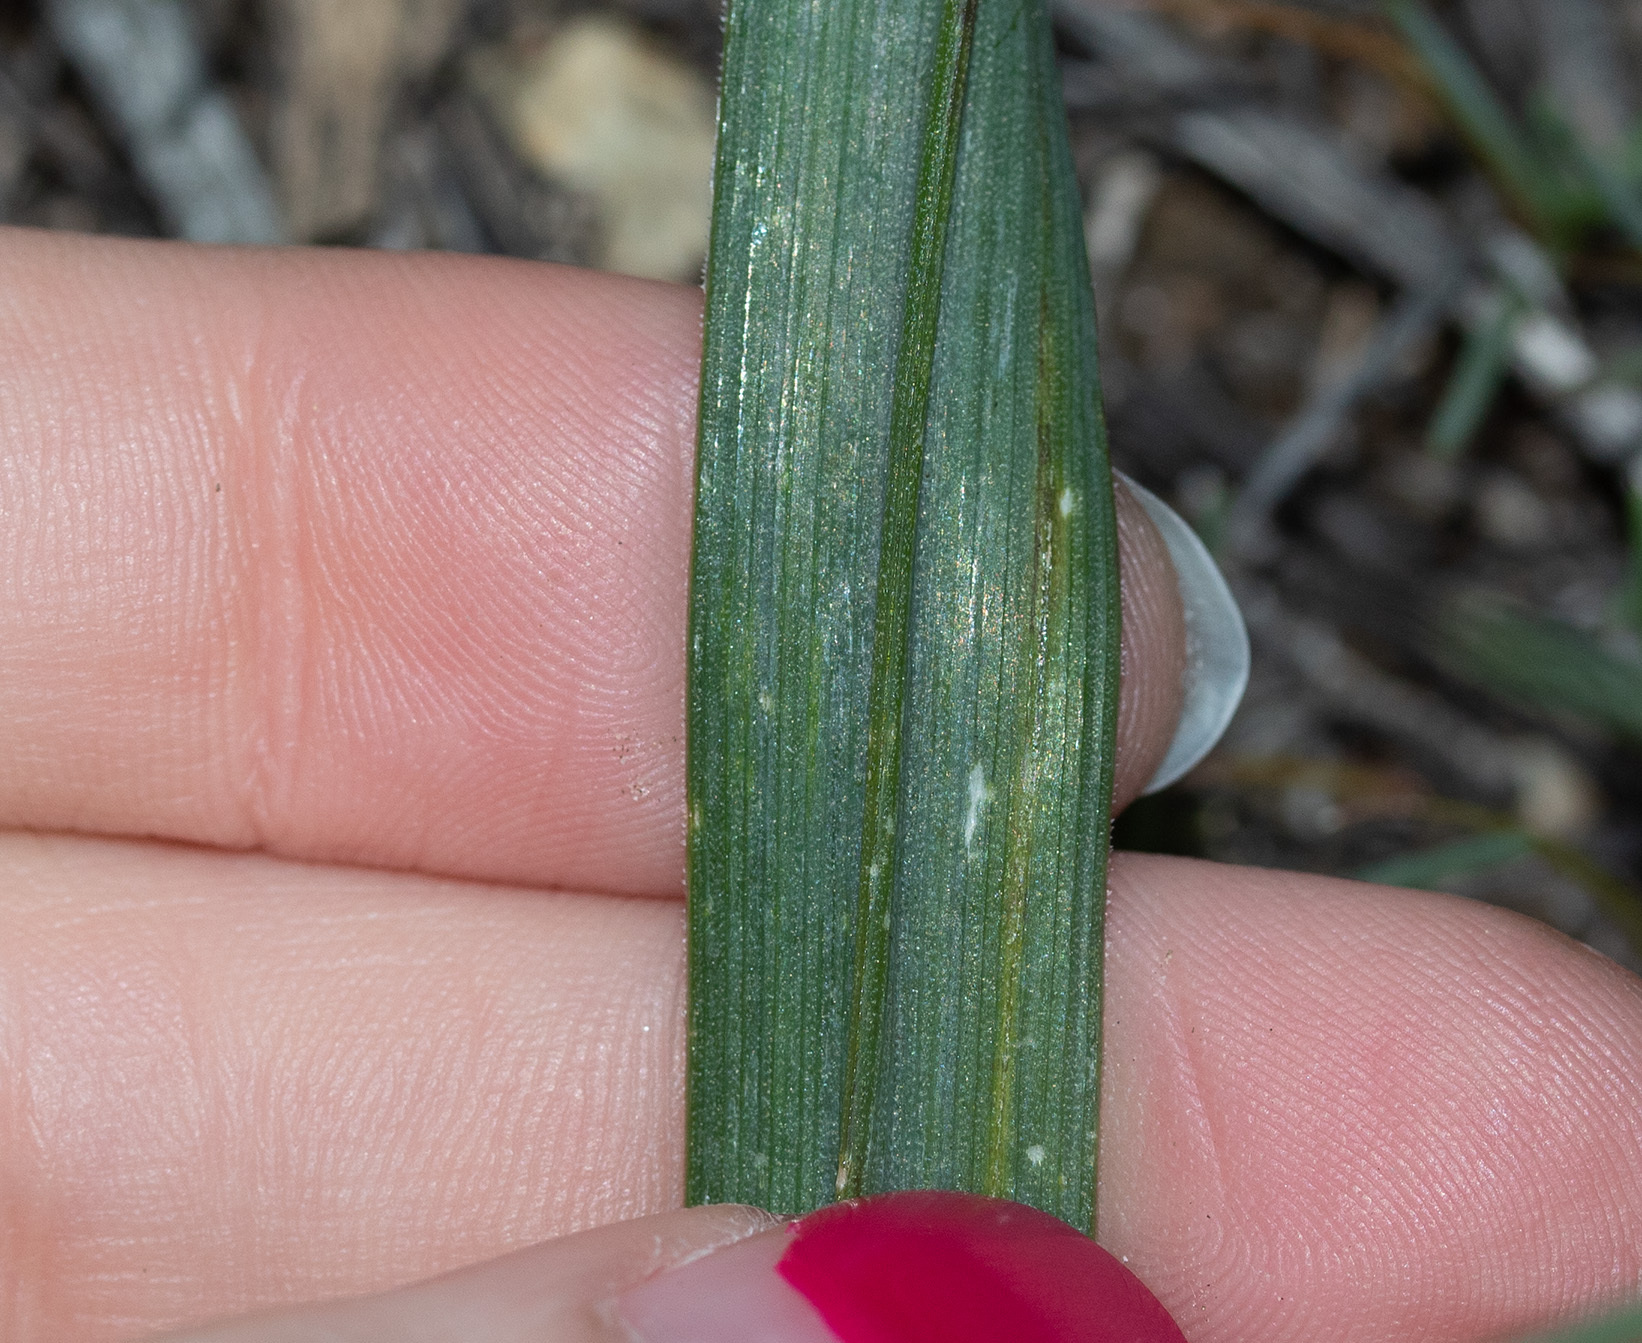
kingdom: Plantae
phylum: Tracheophyta
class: Liliopsida
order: Asparagales
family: Asparagaceae
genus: Dipterostemon
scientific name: Dipterostemon capitatus
